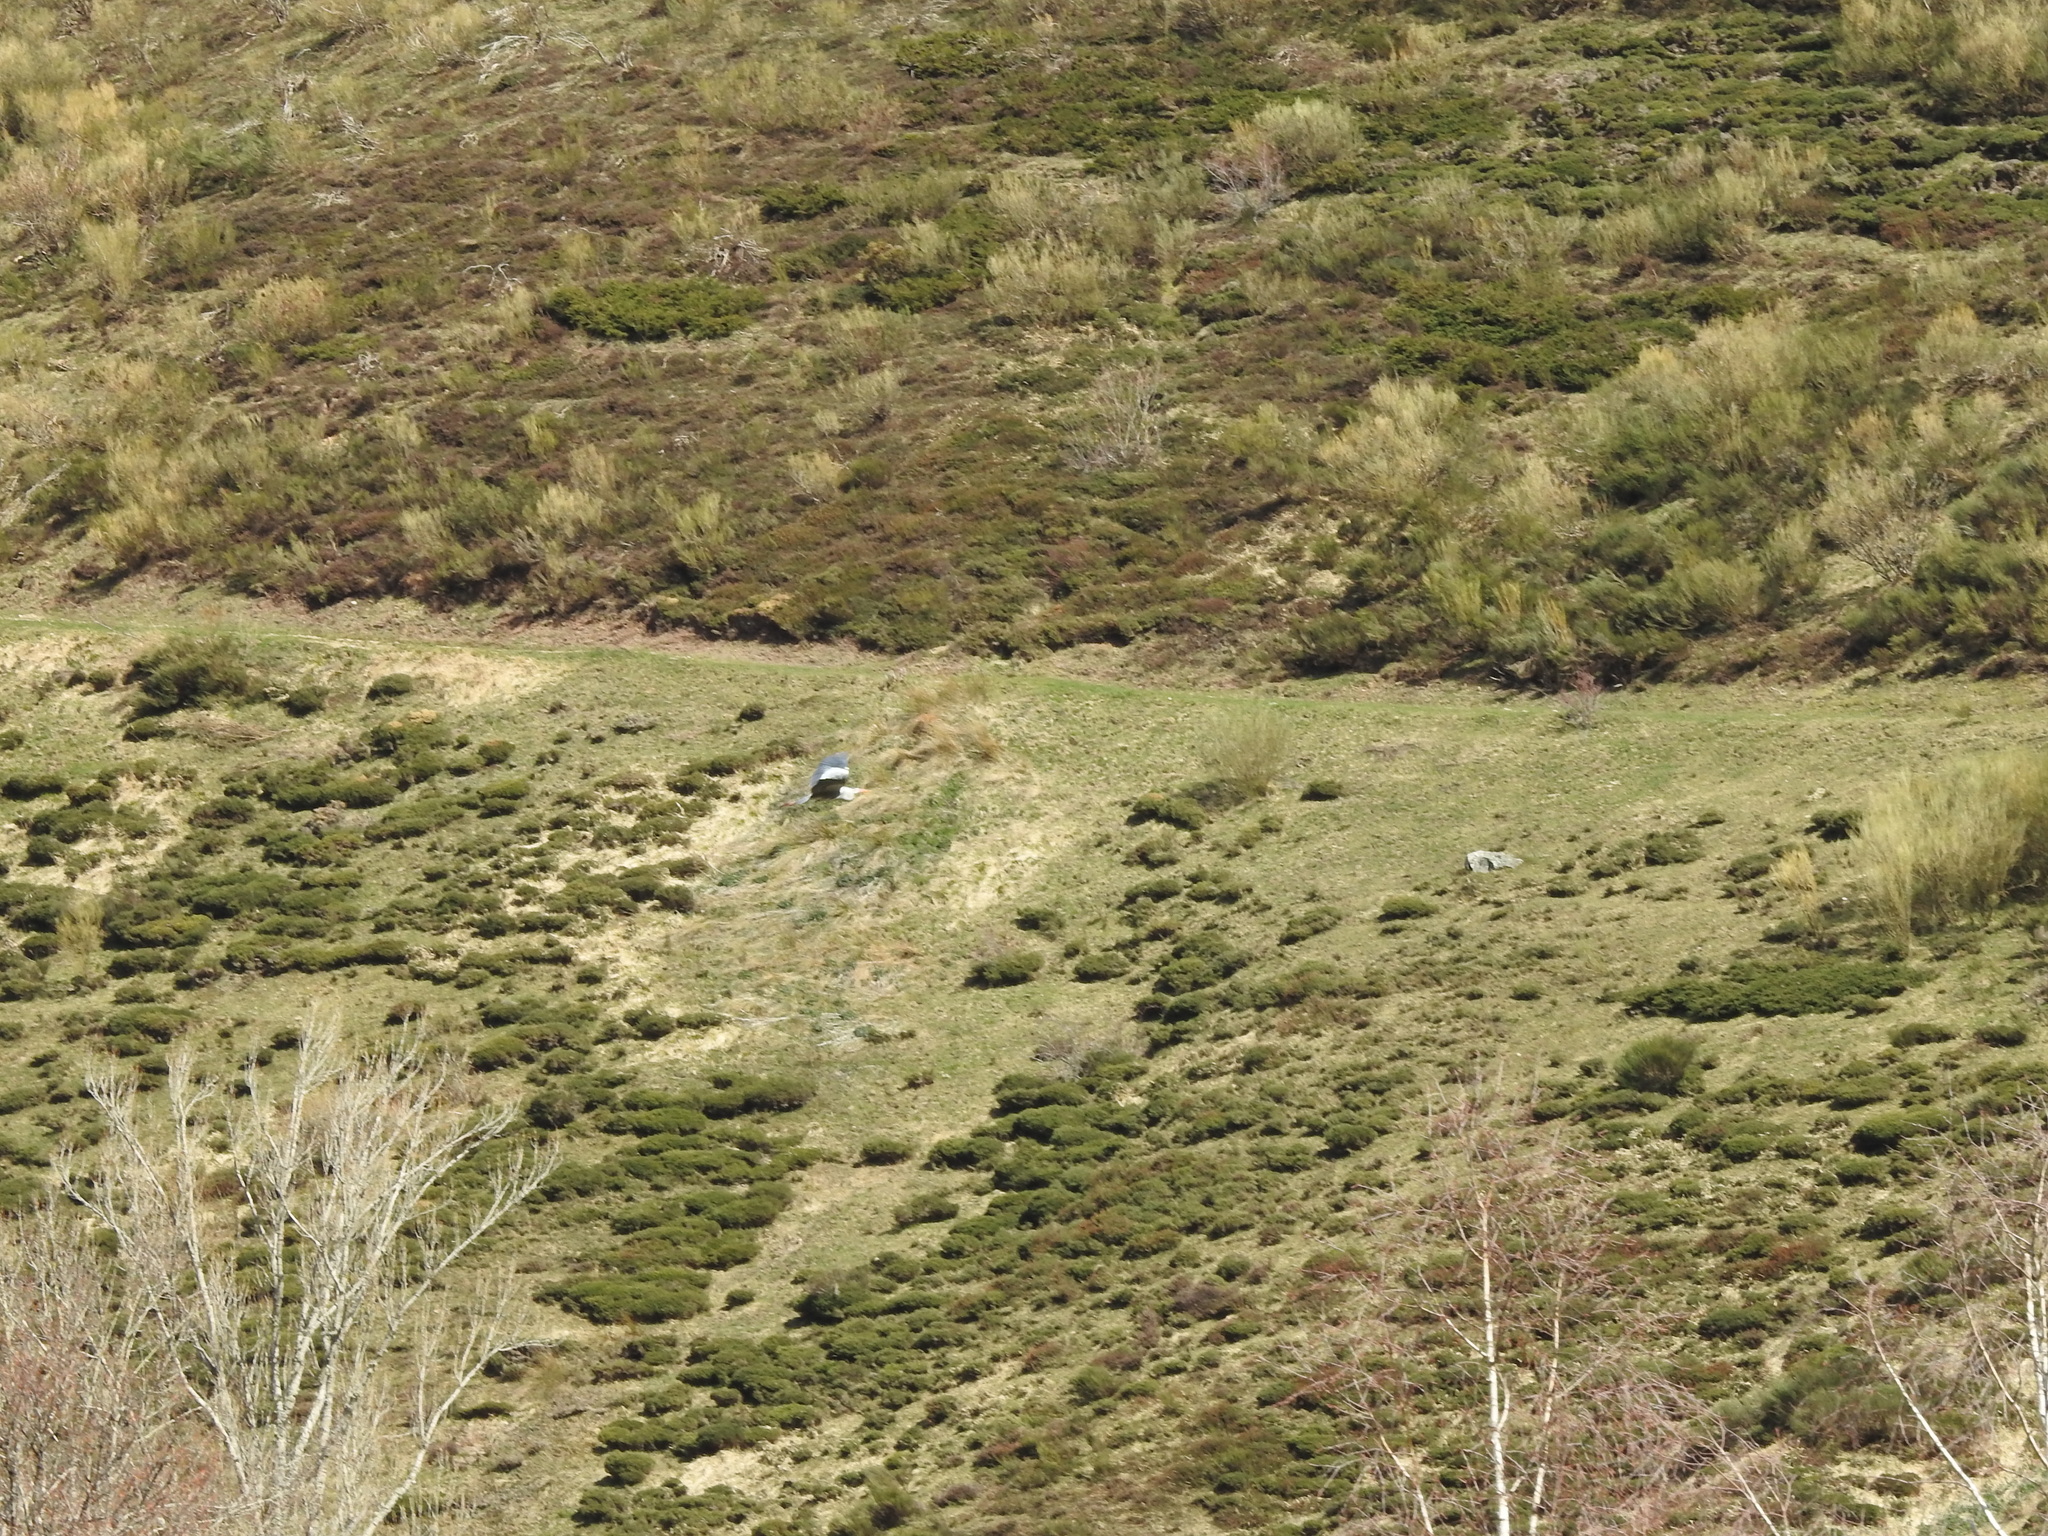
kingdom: Animalia
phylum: Chordata
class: Aves
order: Pelecaniformes
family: Ardeidae
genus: Ardea
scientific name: Ardea cinerea
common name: Grey heron
